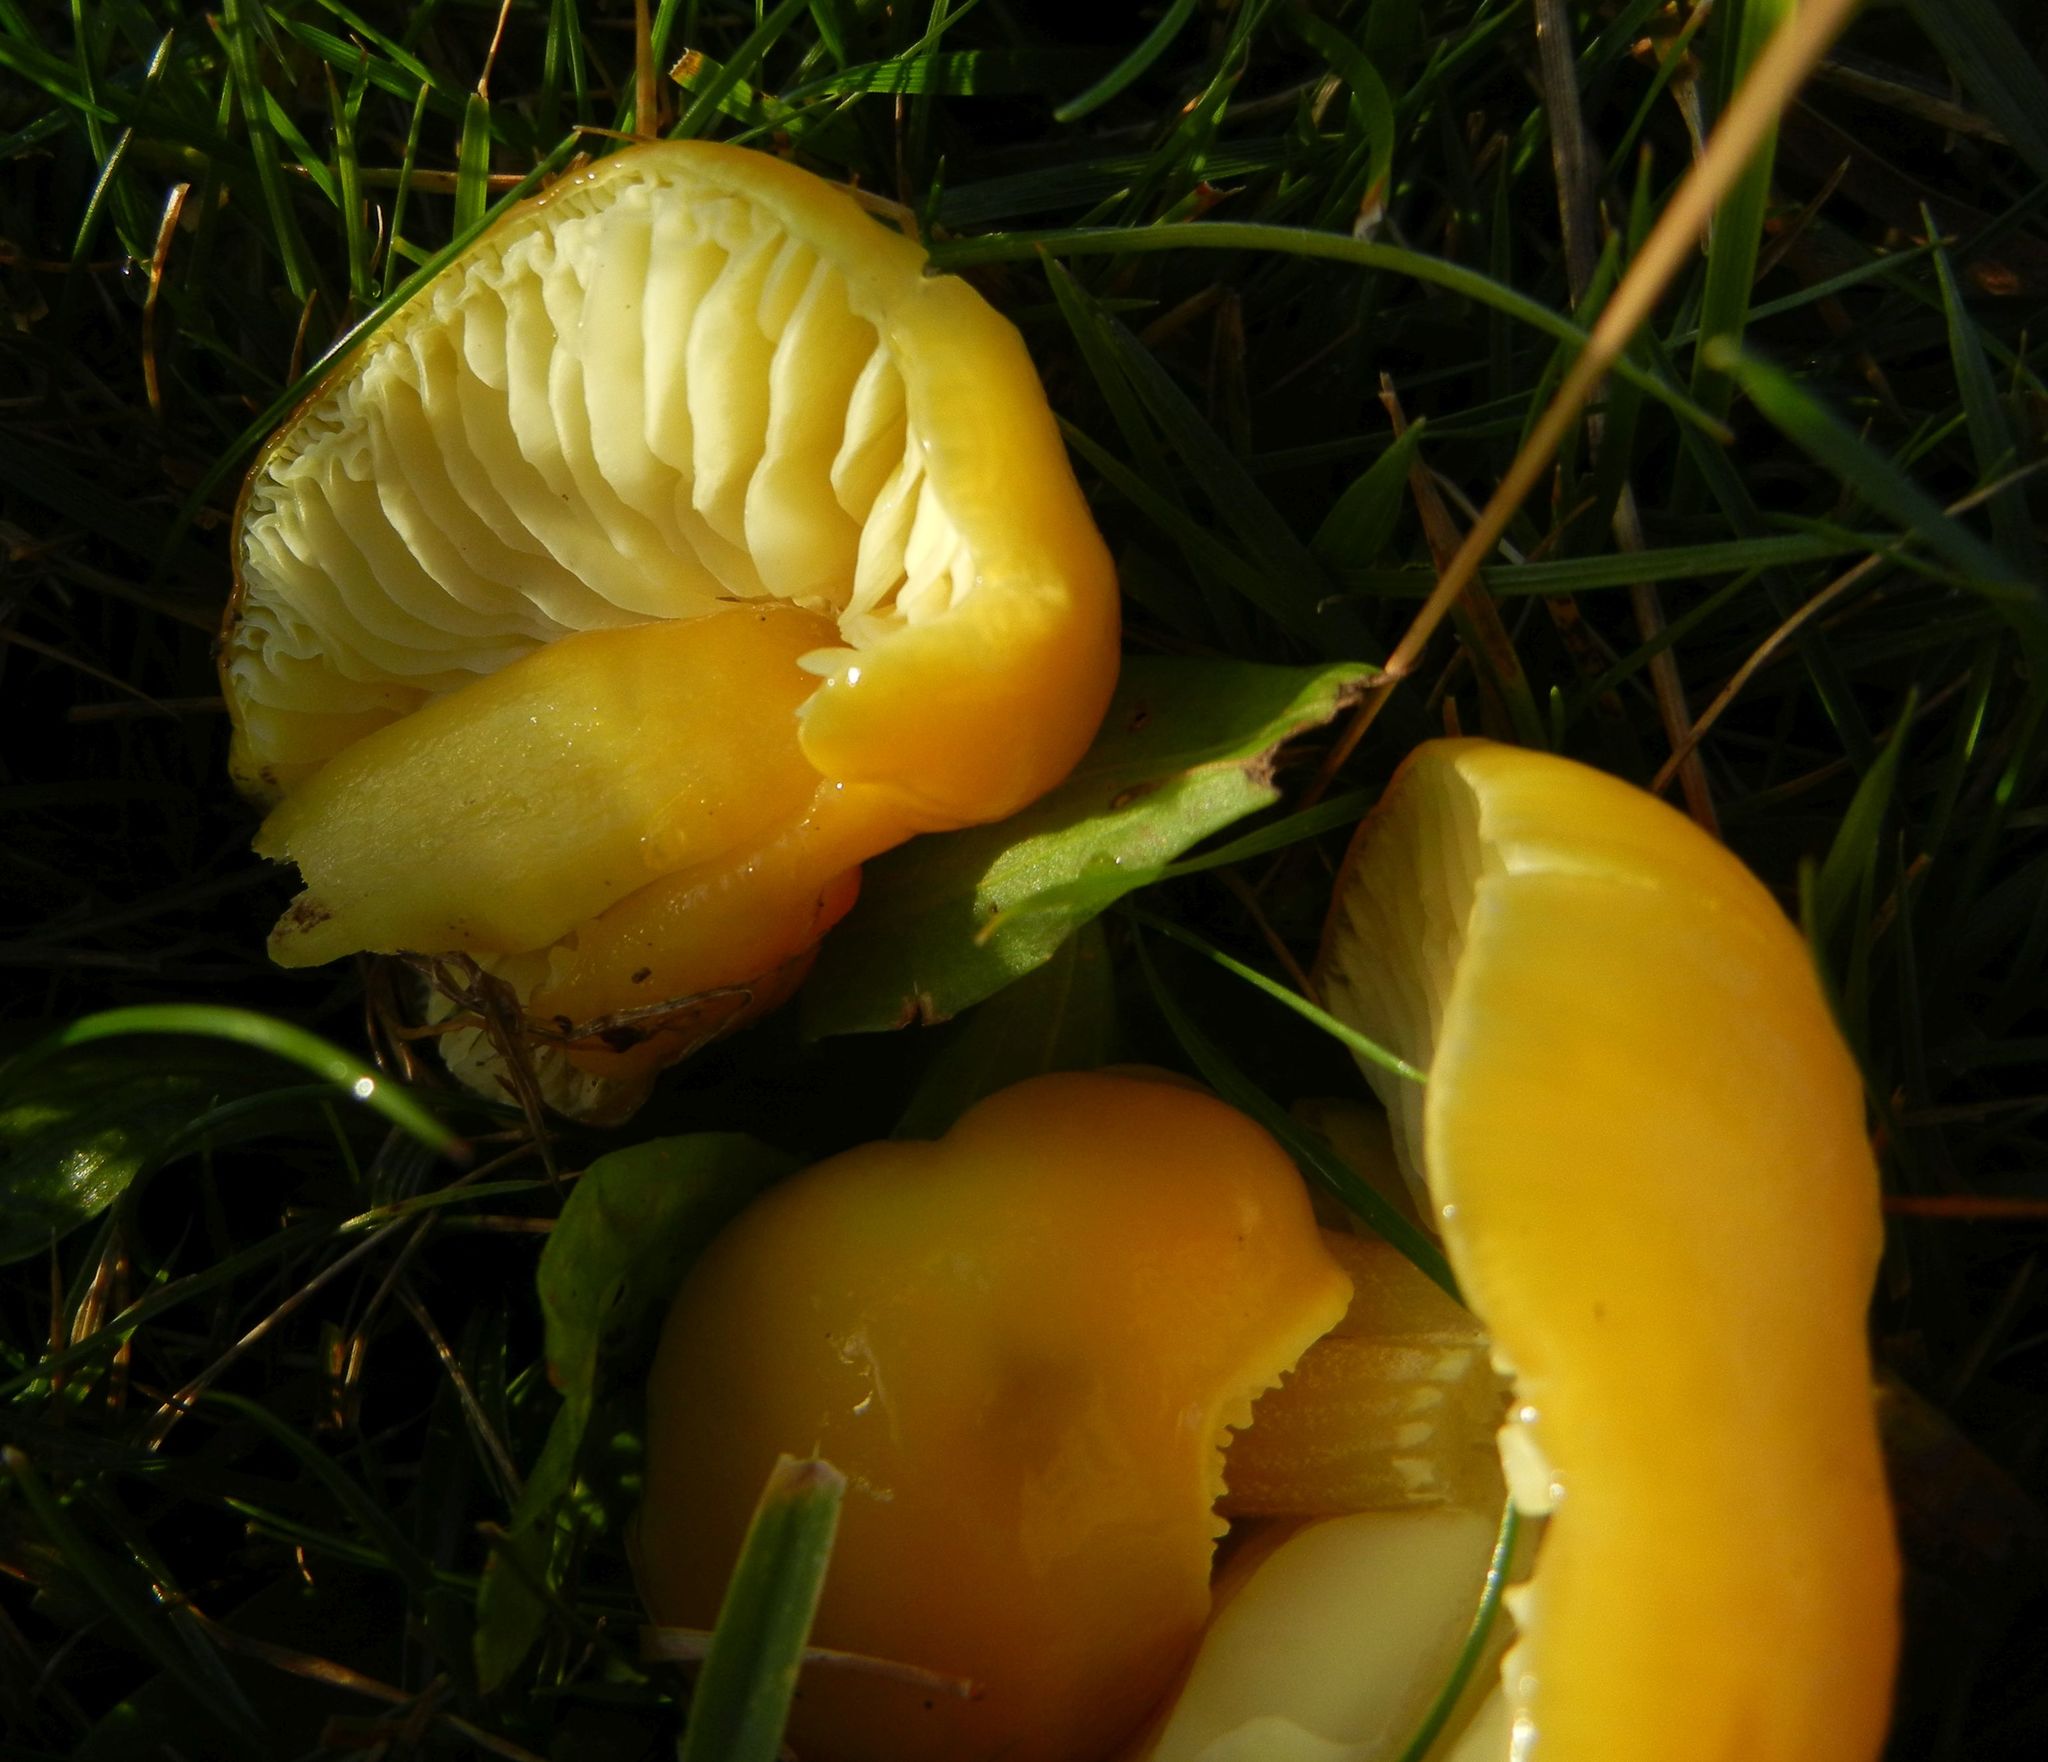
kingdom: Fungi
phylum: Basidiomycota
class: Agaricomycetes
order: Agaricales
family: Hygrophoraceae
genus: Hygrocybe
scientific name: Hygrocybe chlorophana
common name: Golden waxcap
